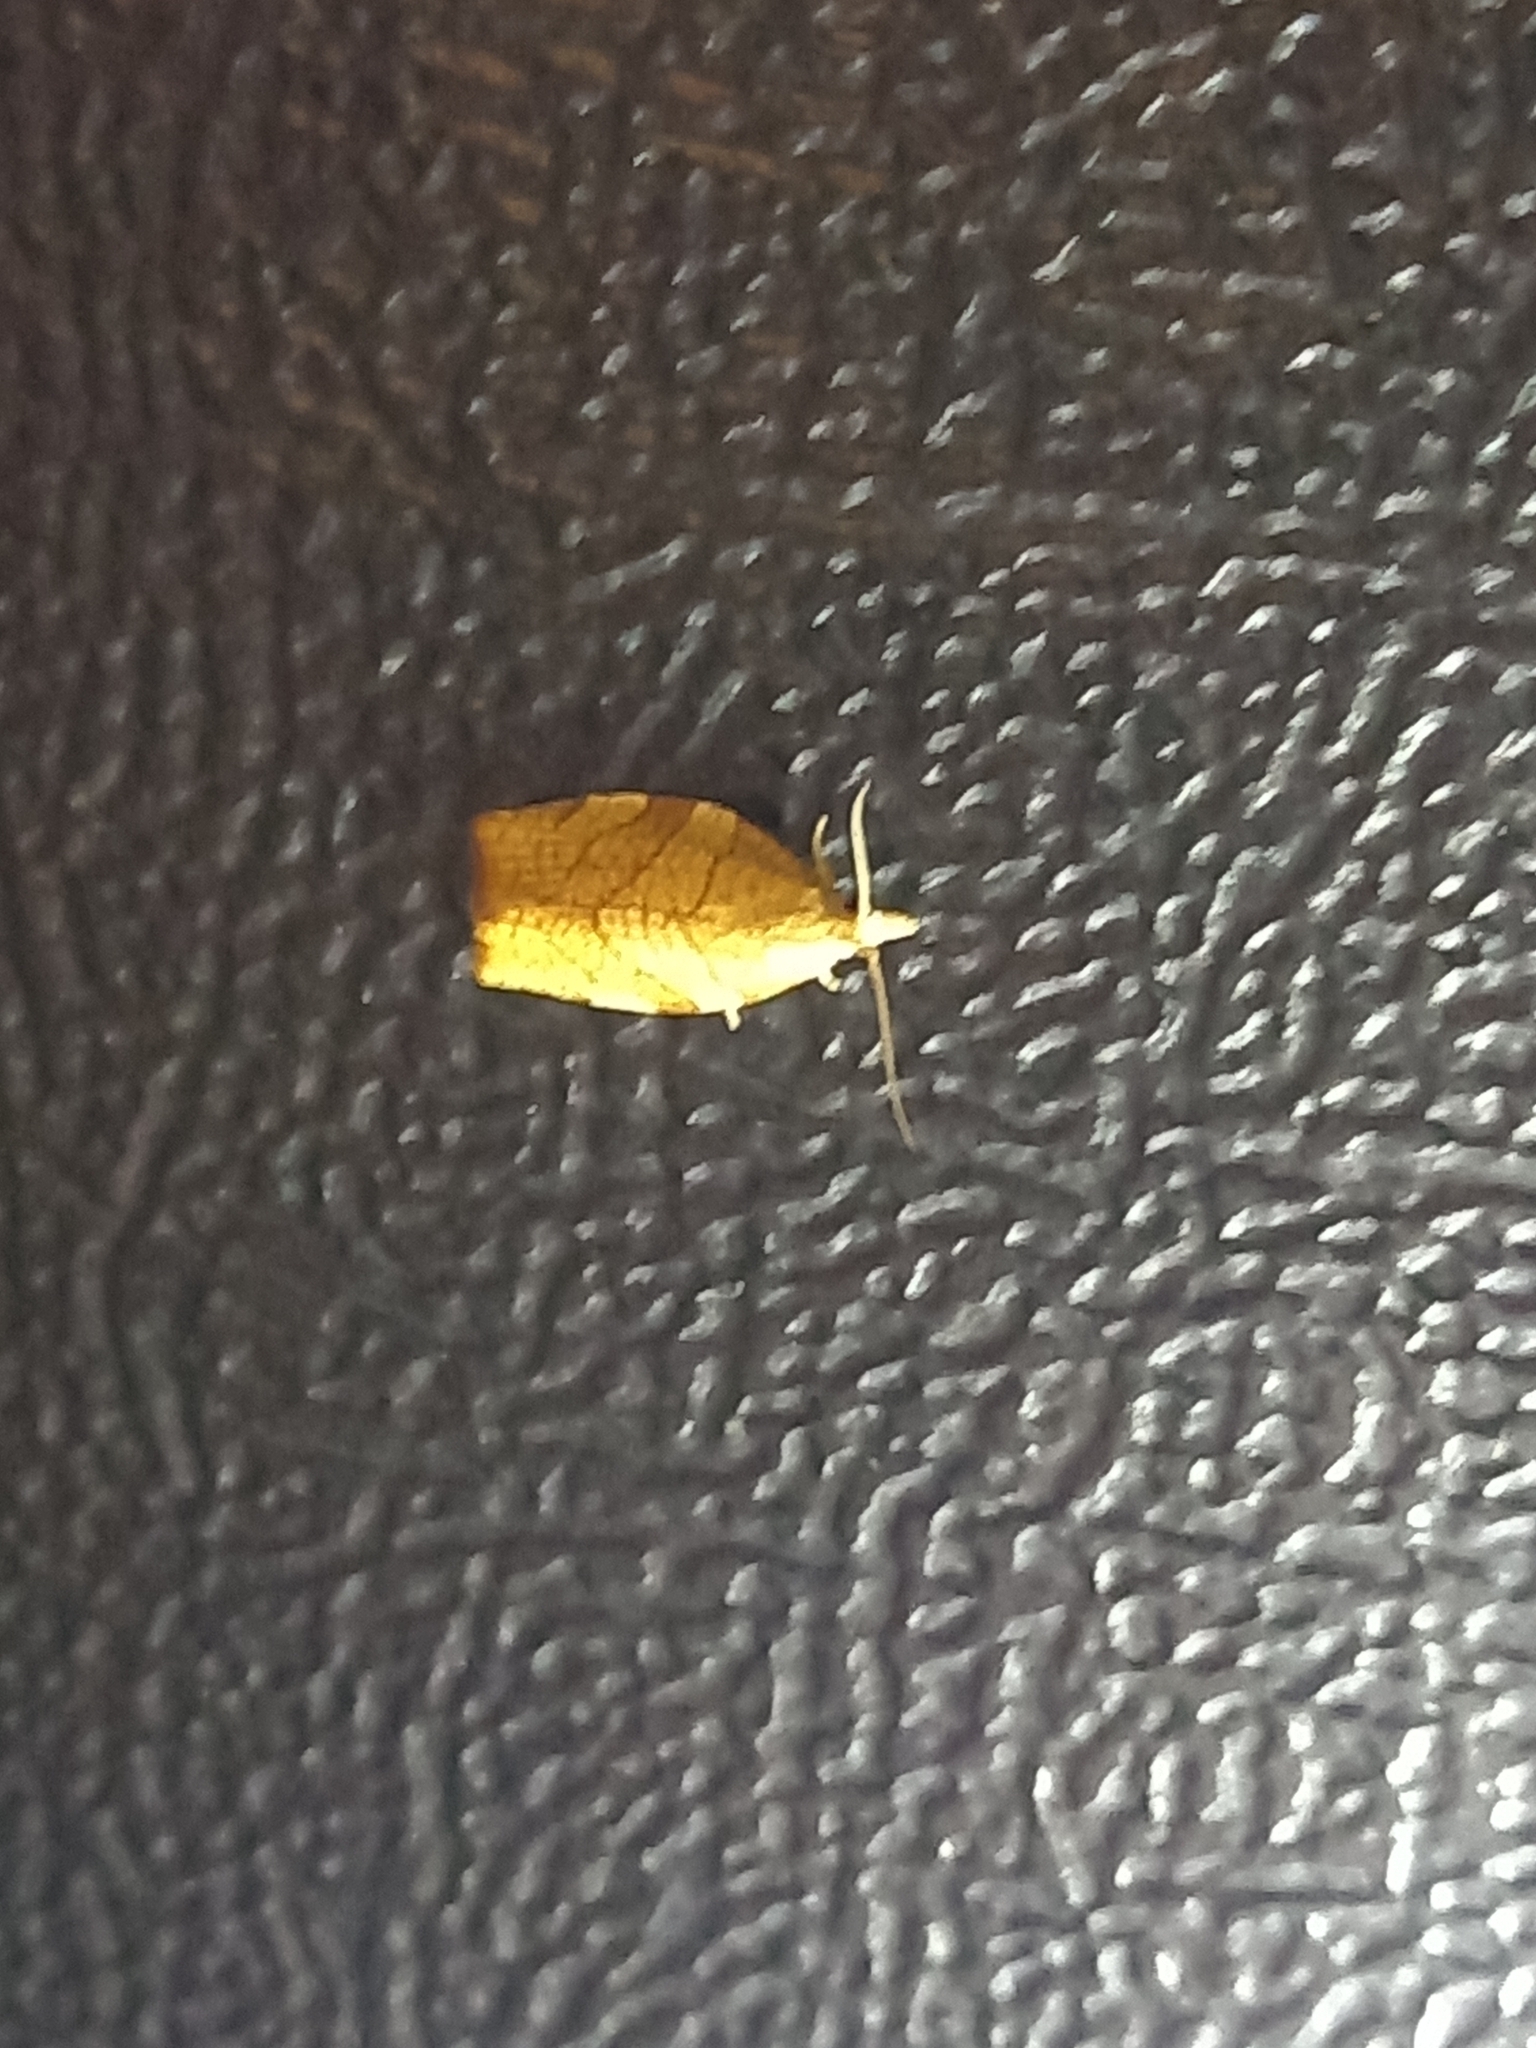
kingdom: Animalia
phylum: Arthropoda
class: Insecta
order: Lepidoptera
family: Tortricidae
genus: Pandemis
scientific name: Pandemis corylana
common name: Chequered fruit-tree tortrix
